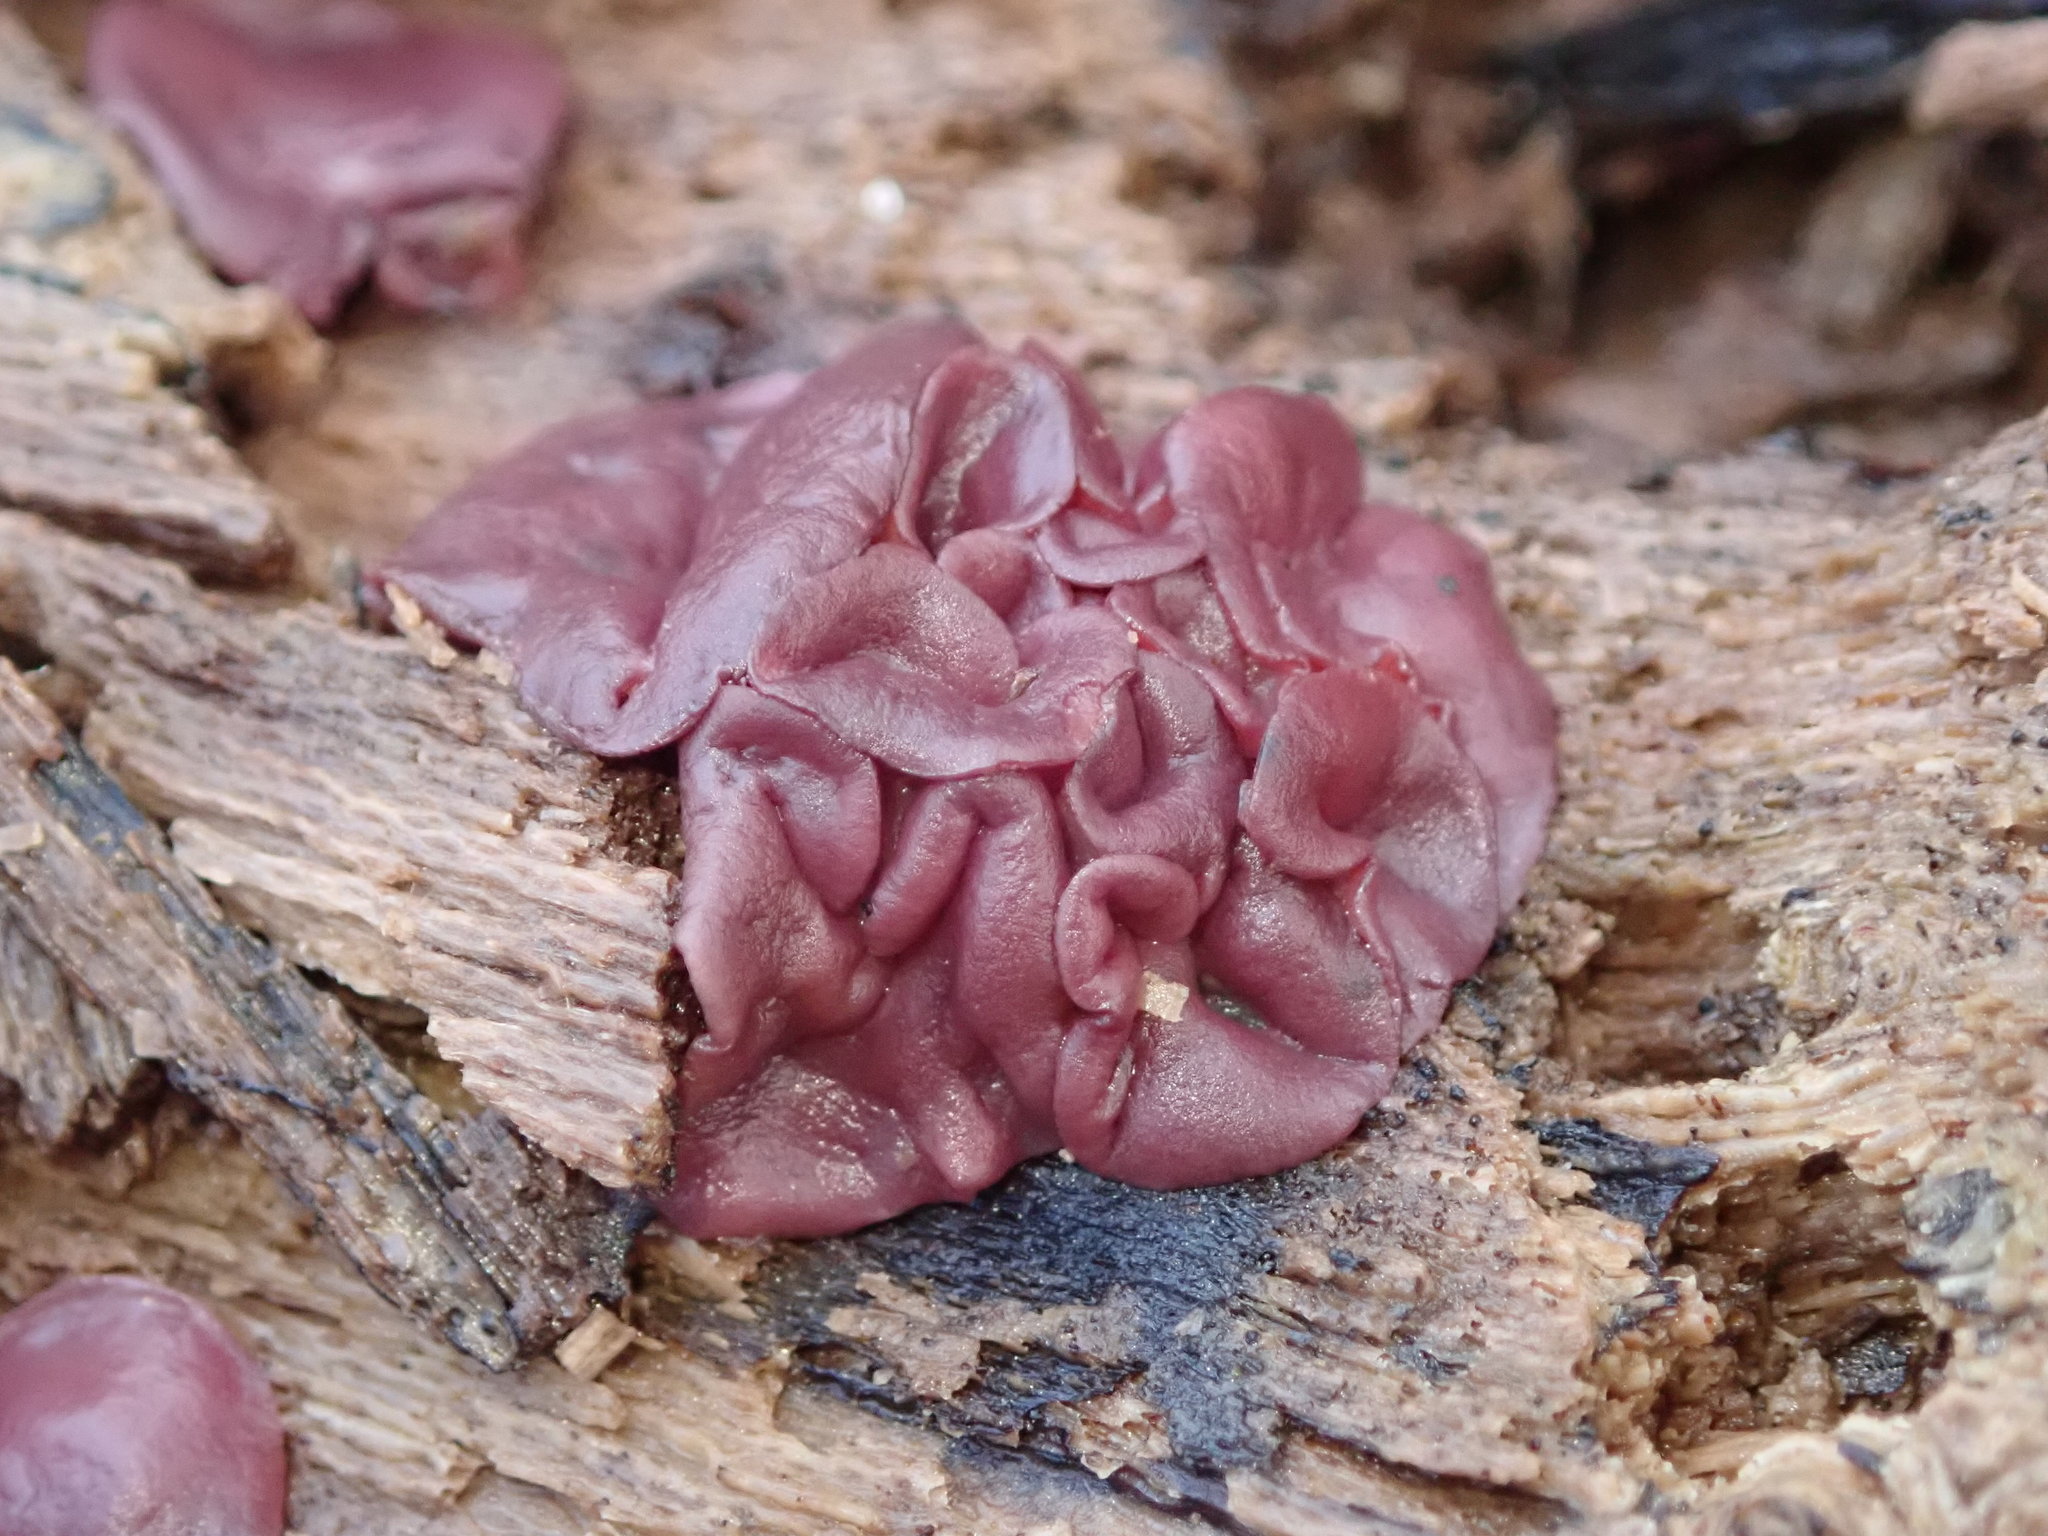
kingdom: Fungi
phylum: Ascomycota
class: Leotiomycetes
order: Helotiales
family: Gelatinodiscaceae
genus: Ascocoryne
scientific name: Ascocoryne sarcoides
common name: Purple jellydisc
